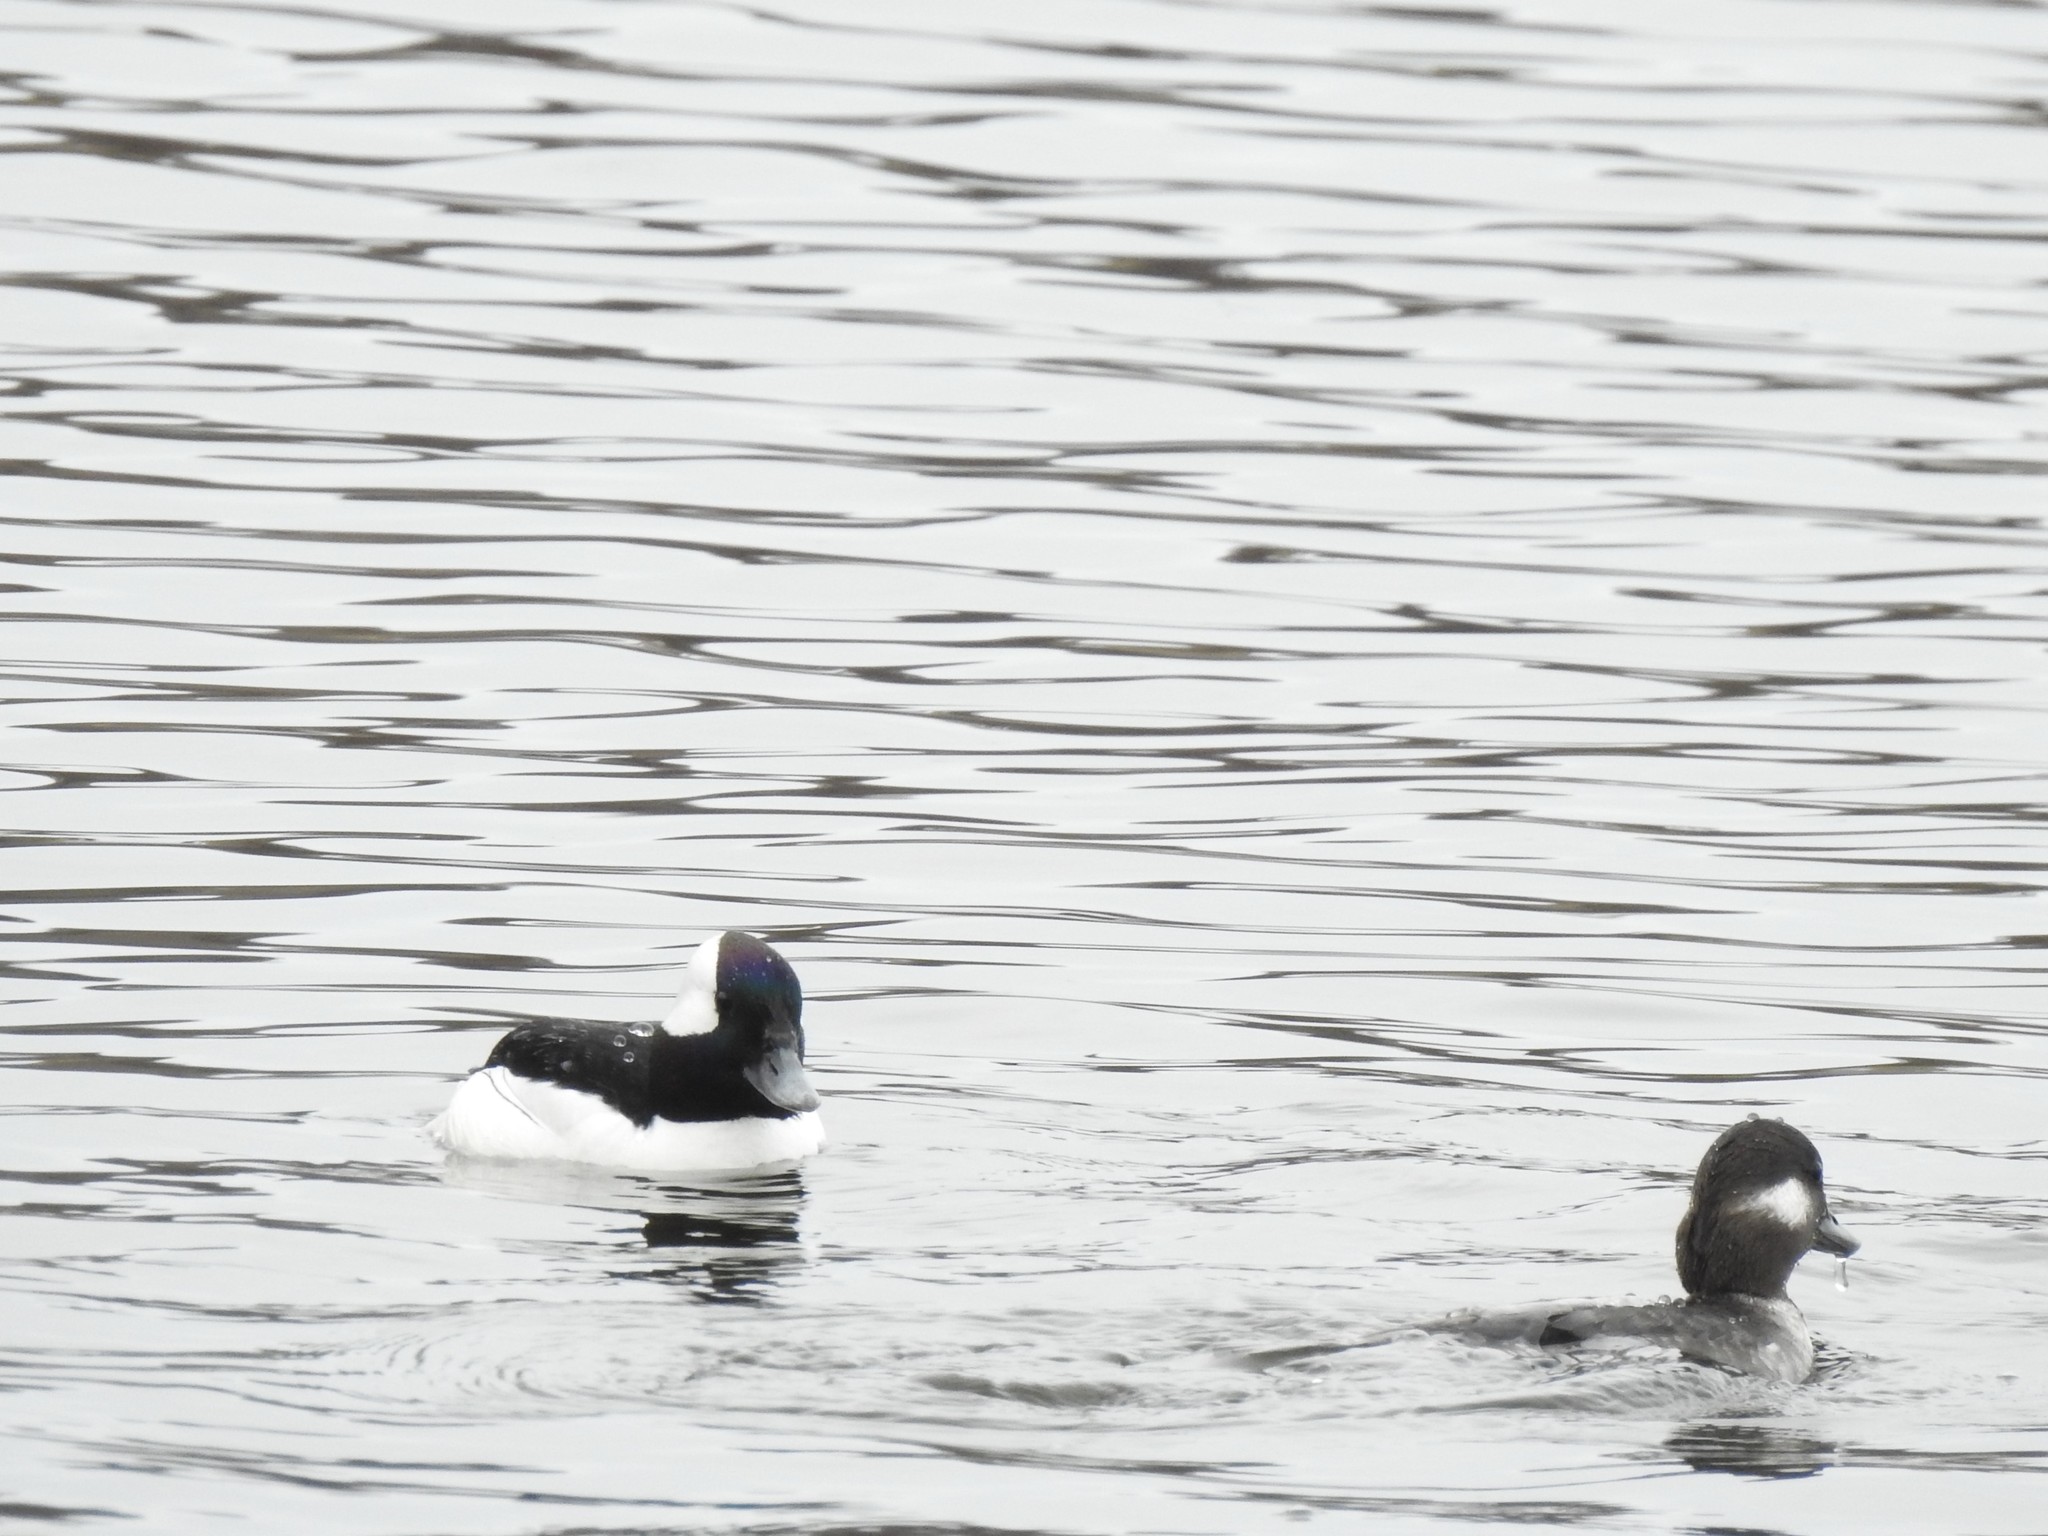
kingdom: Animalia
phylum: Chordata
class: Aves
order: Anseriformes
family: Anatidae
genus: Bucephala
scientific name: Bucephala albeola
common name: Bufflehead
